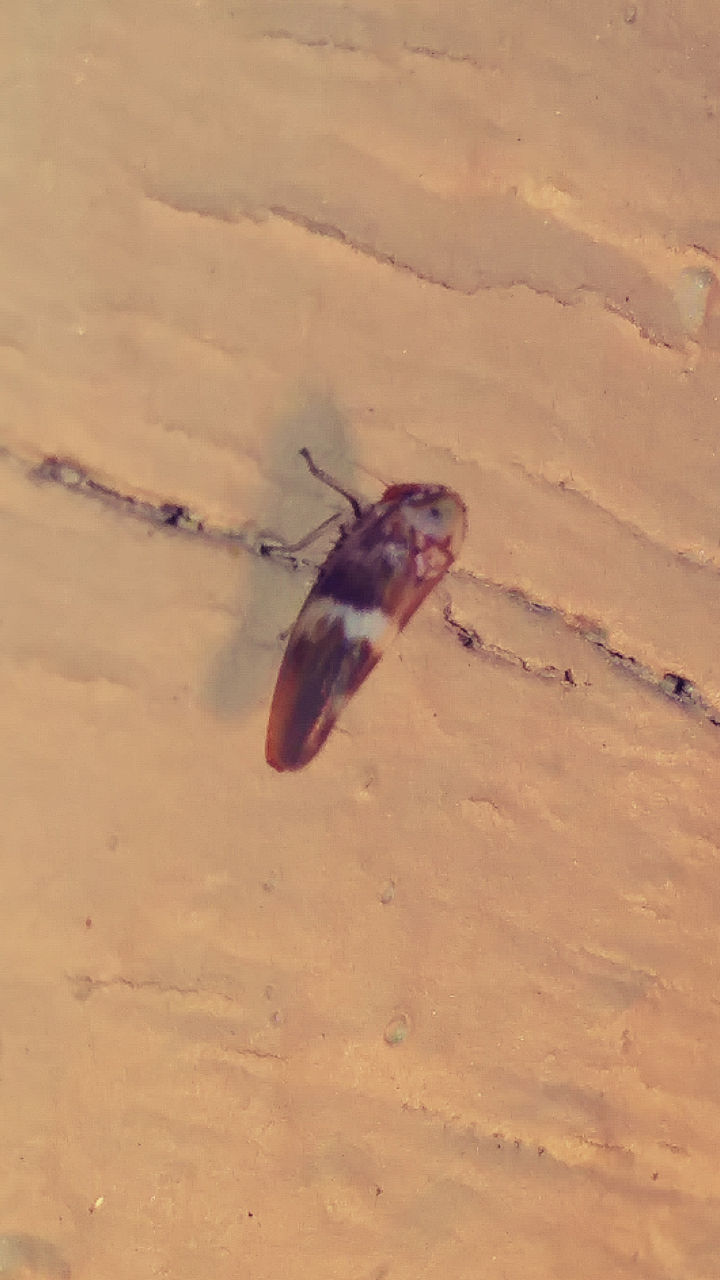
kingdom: Animalia
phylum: Arthropoda
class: Insecta
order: Hemiptera
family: Cicadellidae
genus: Agalliopsis
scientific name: Agalliopsis cervina
